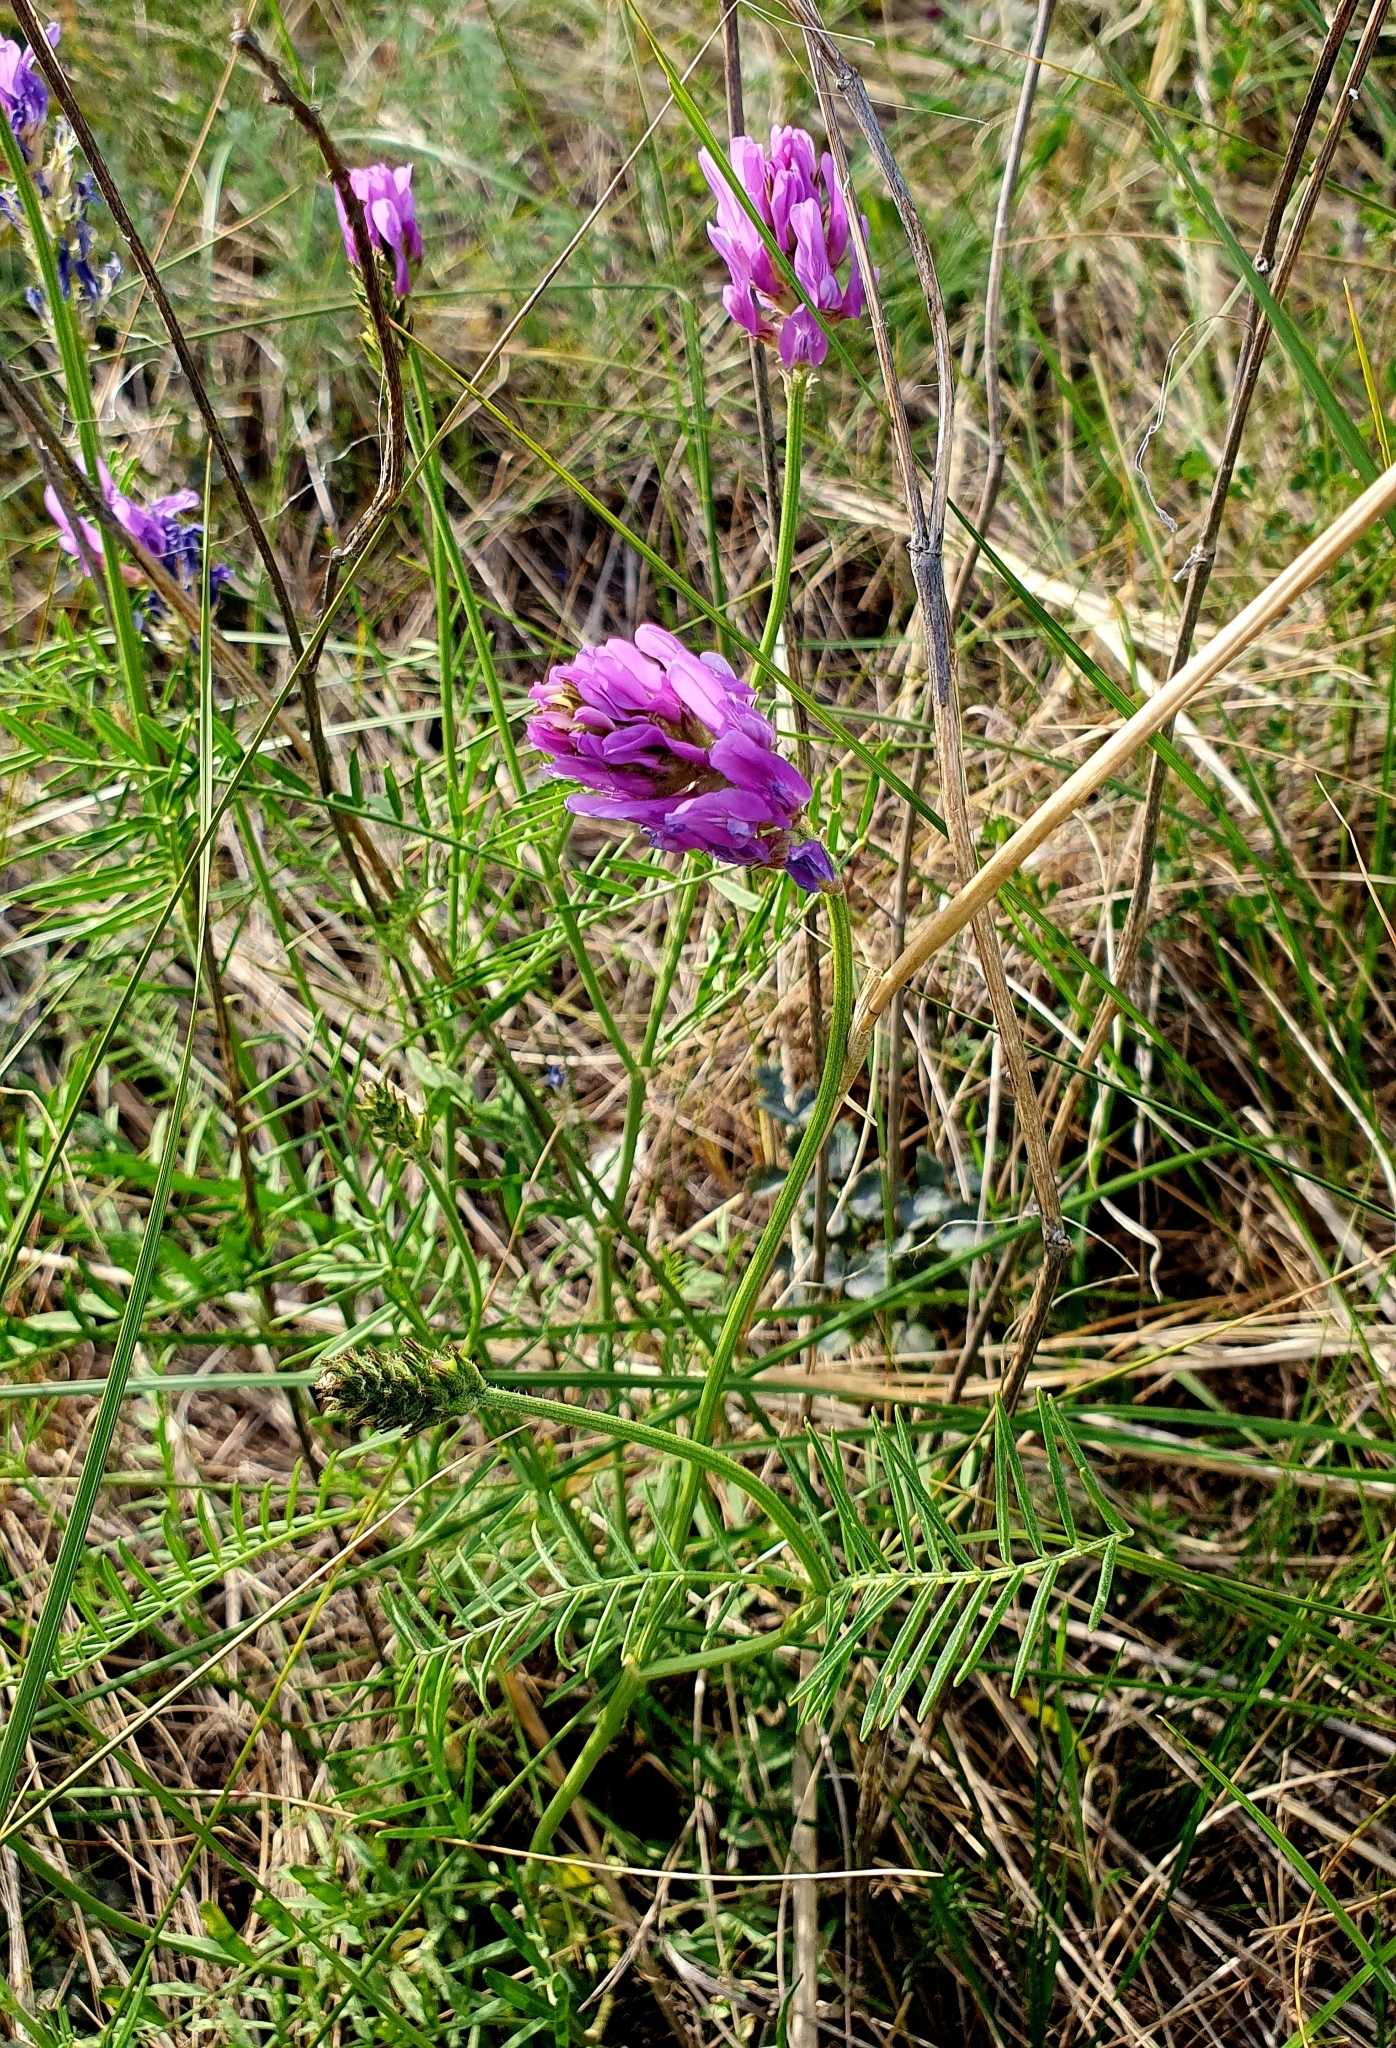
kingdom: Plantae
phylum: Tracheophyta
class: Magnoliopsida
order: Fabales
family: Fabaceae
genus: Astragalus
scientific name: Astragalus onobrychis
